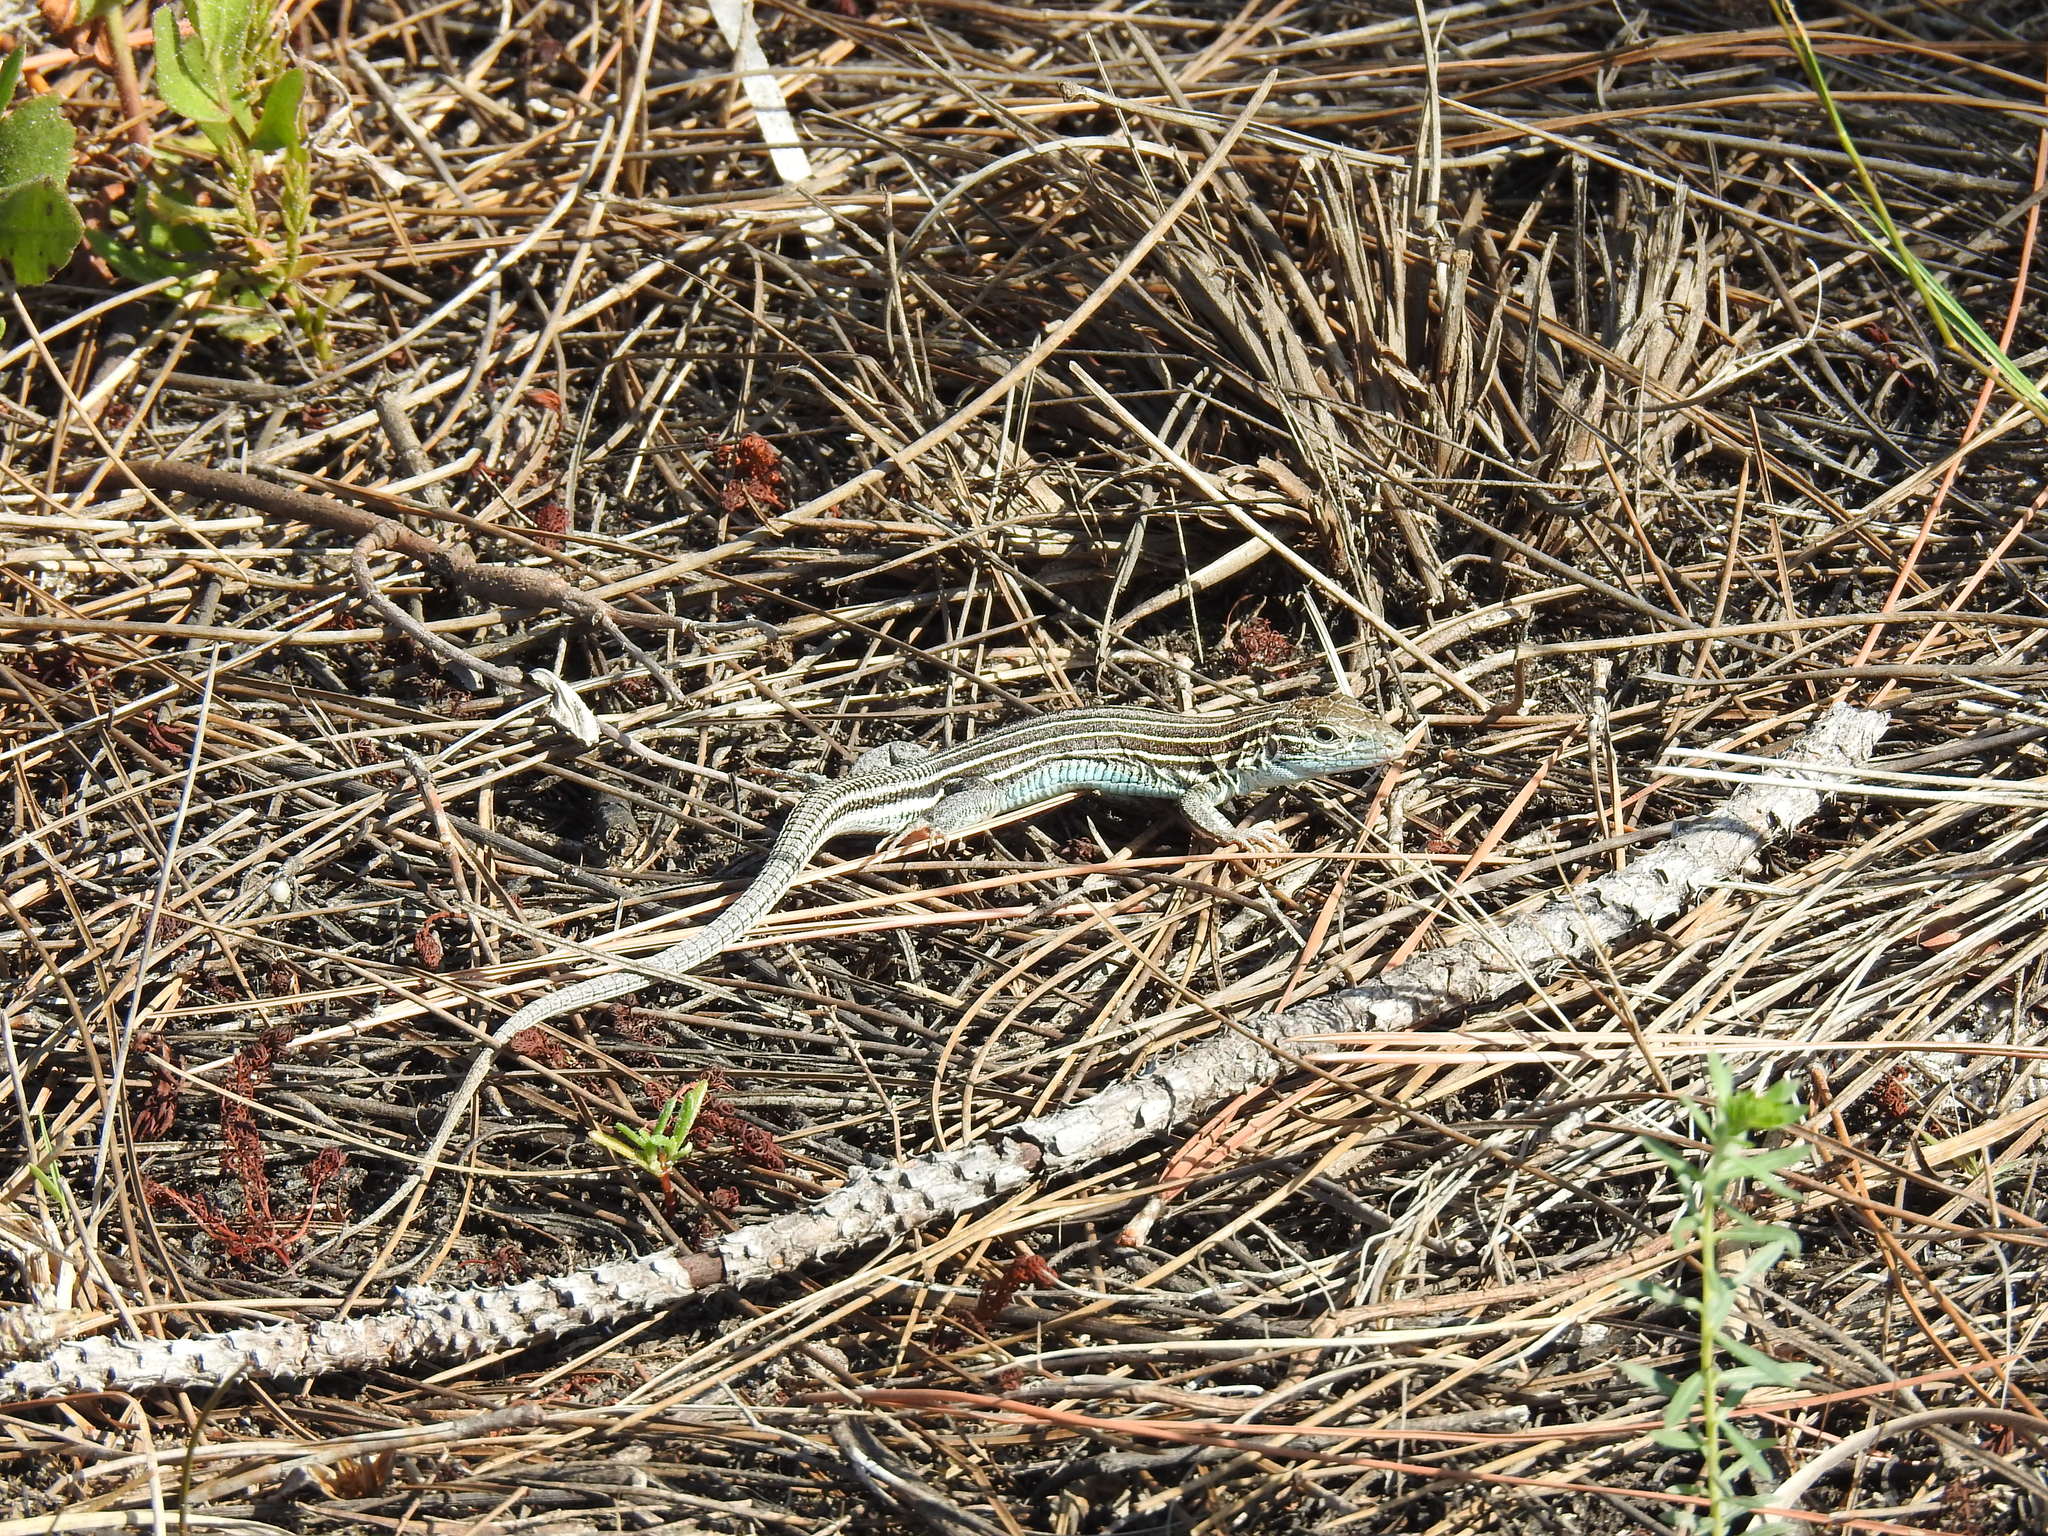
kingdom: Animalia
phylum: Chordata
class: Squamata
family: Teiidae
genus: Aspidoscelis
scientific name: Aspidoscelis sexlineatus
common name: Six-lined racerunner
